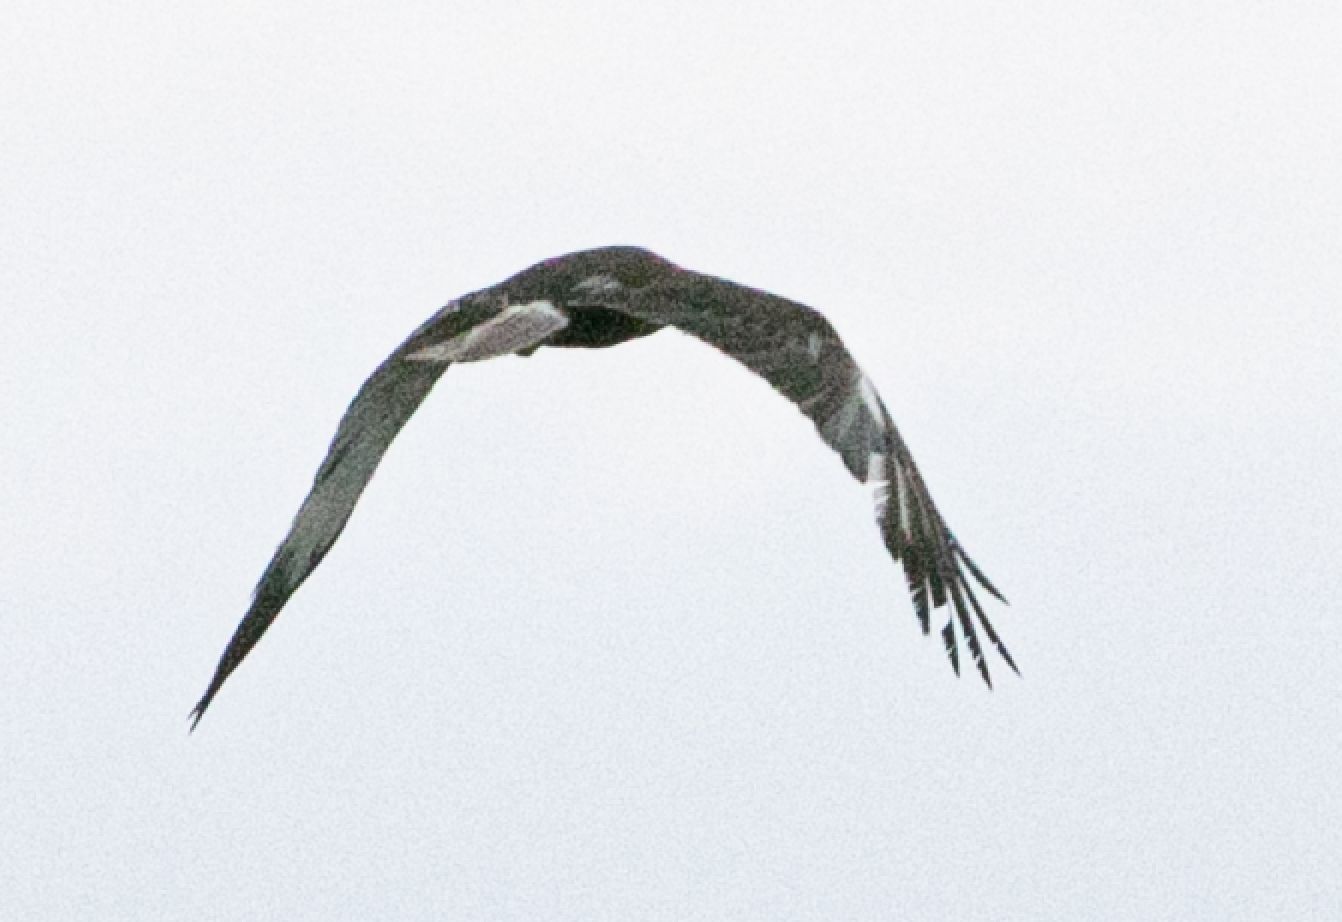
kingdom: Animalia
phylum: Chordata
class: Aves
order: Accipitriformes
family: Accipitridae
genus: Circus
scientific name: Circus aeruginosus
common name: Western marsh harrier
